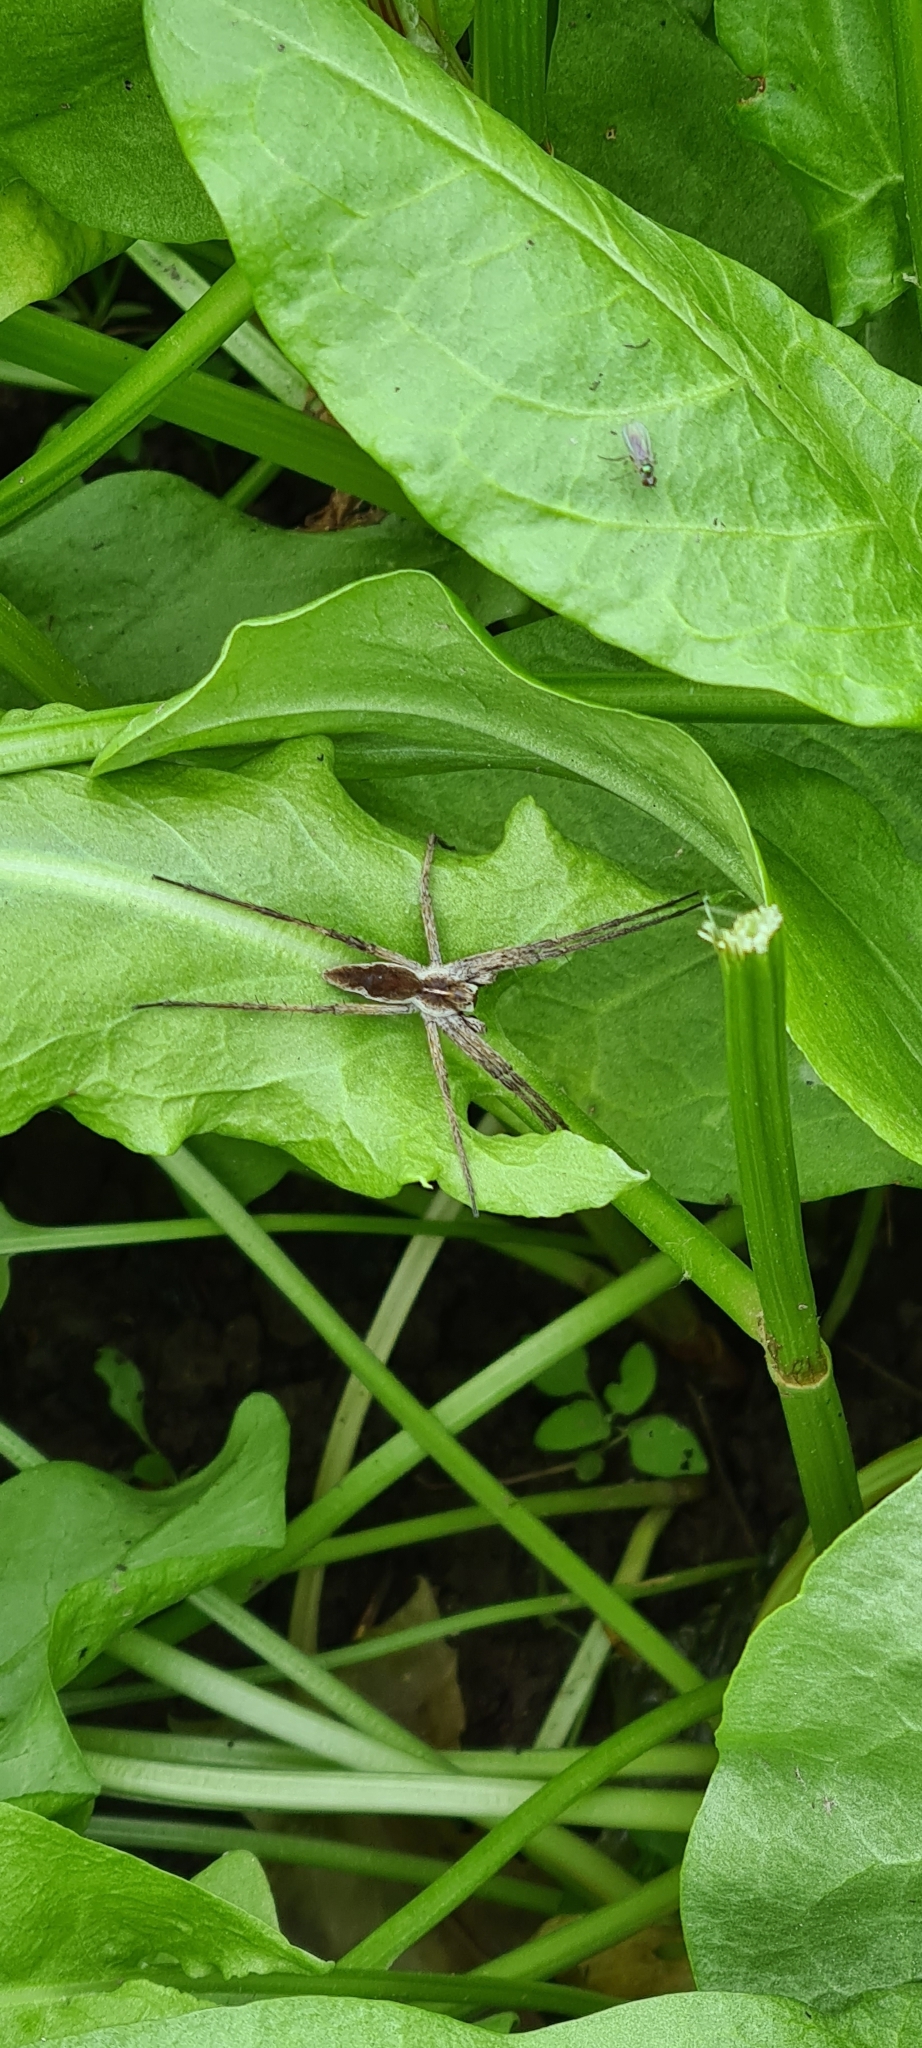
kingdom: Animalia
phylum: Arthropoda
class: Arachnida
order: Araneae
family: Pisauridae
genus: Pisaura
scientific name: Pisaura mirabilis
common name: Tent spider
